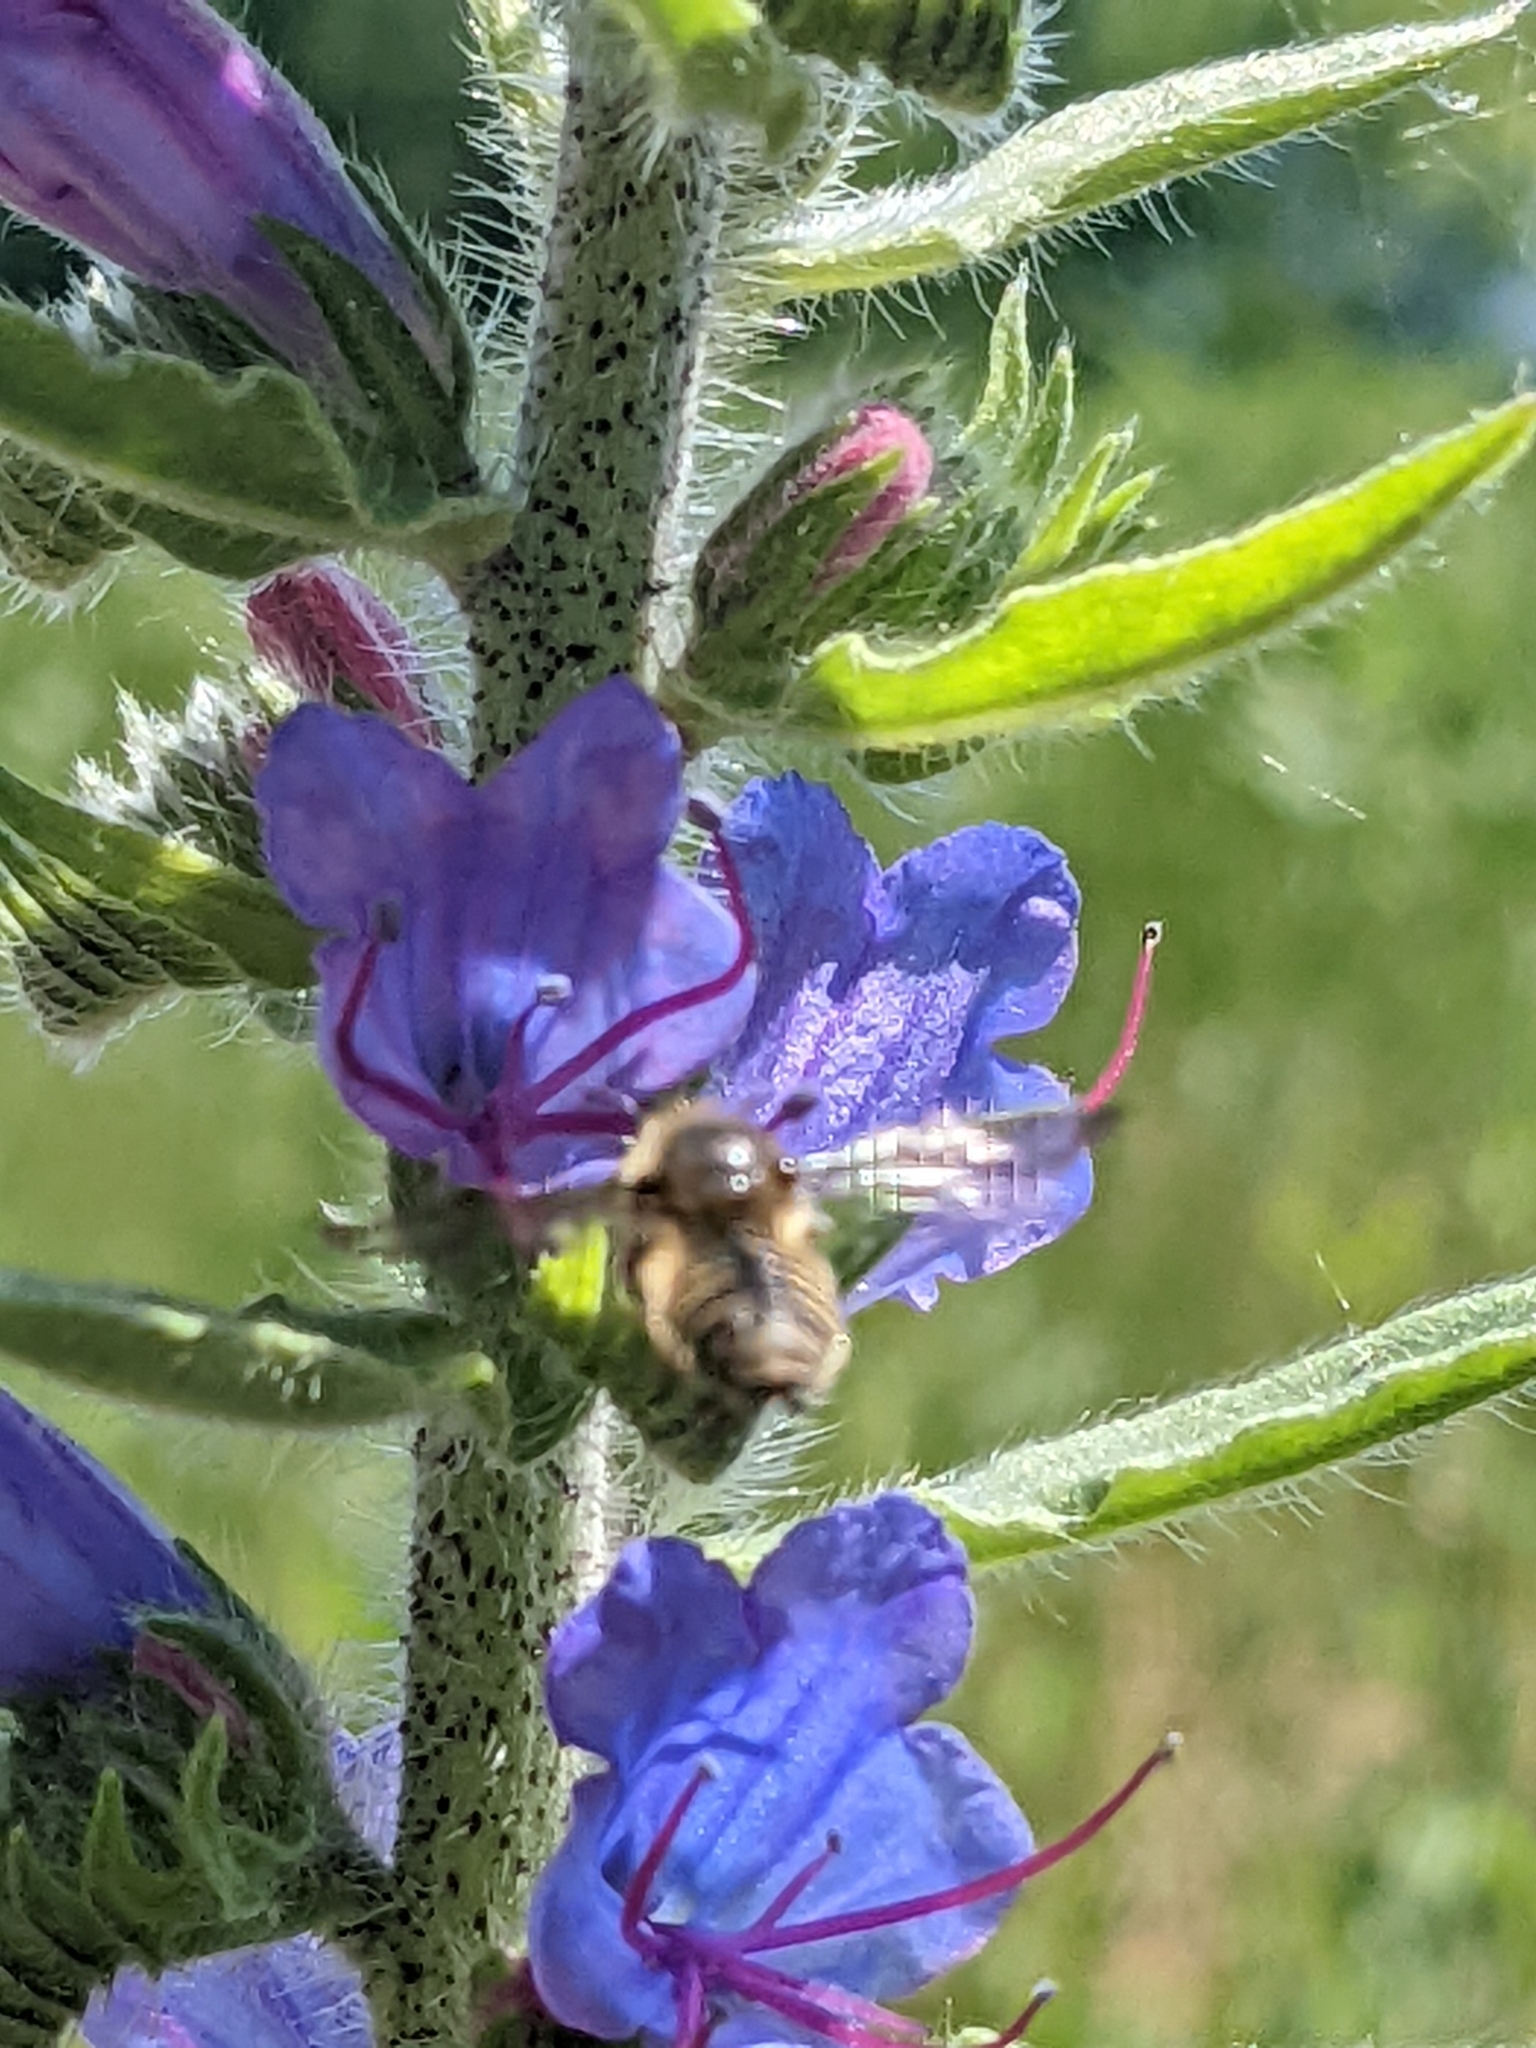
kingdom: Plantae
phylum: Tracheophyta
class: Magnoliopsida
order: Boraginales
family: Boraginaceae
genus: Echium
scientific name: Echium vulgare
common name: Common viper's bugloss
